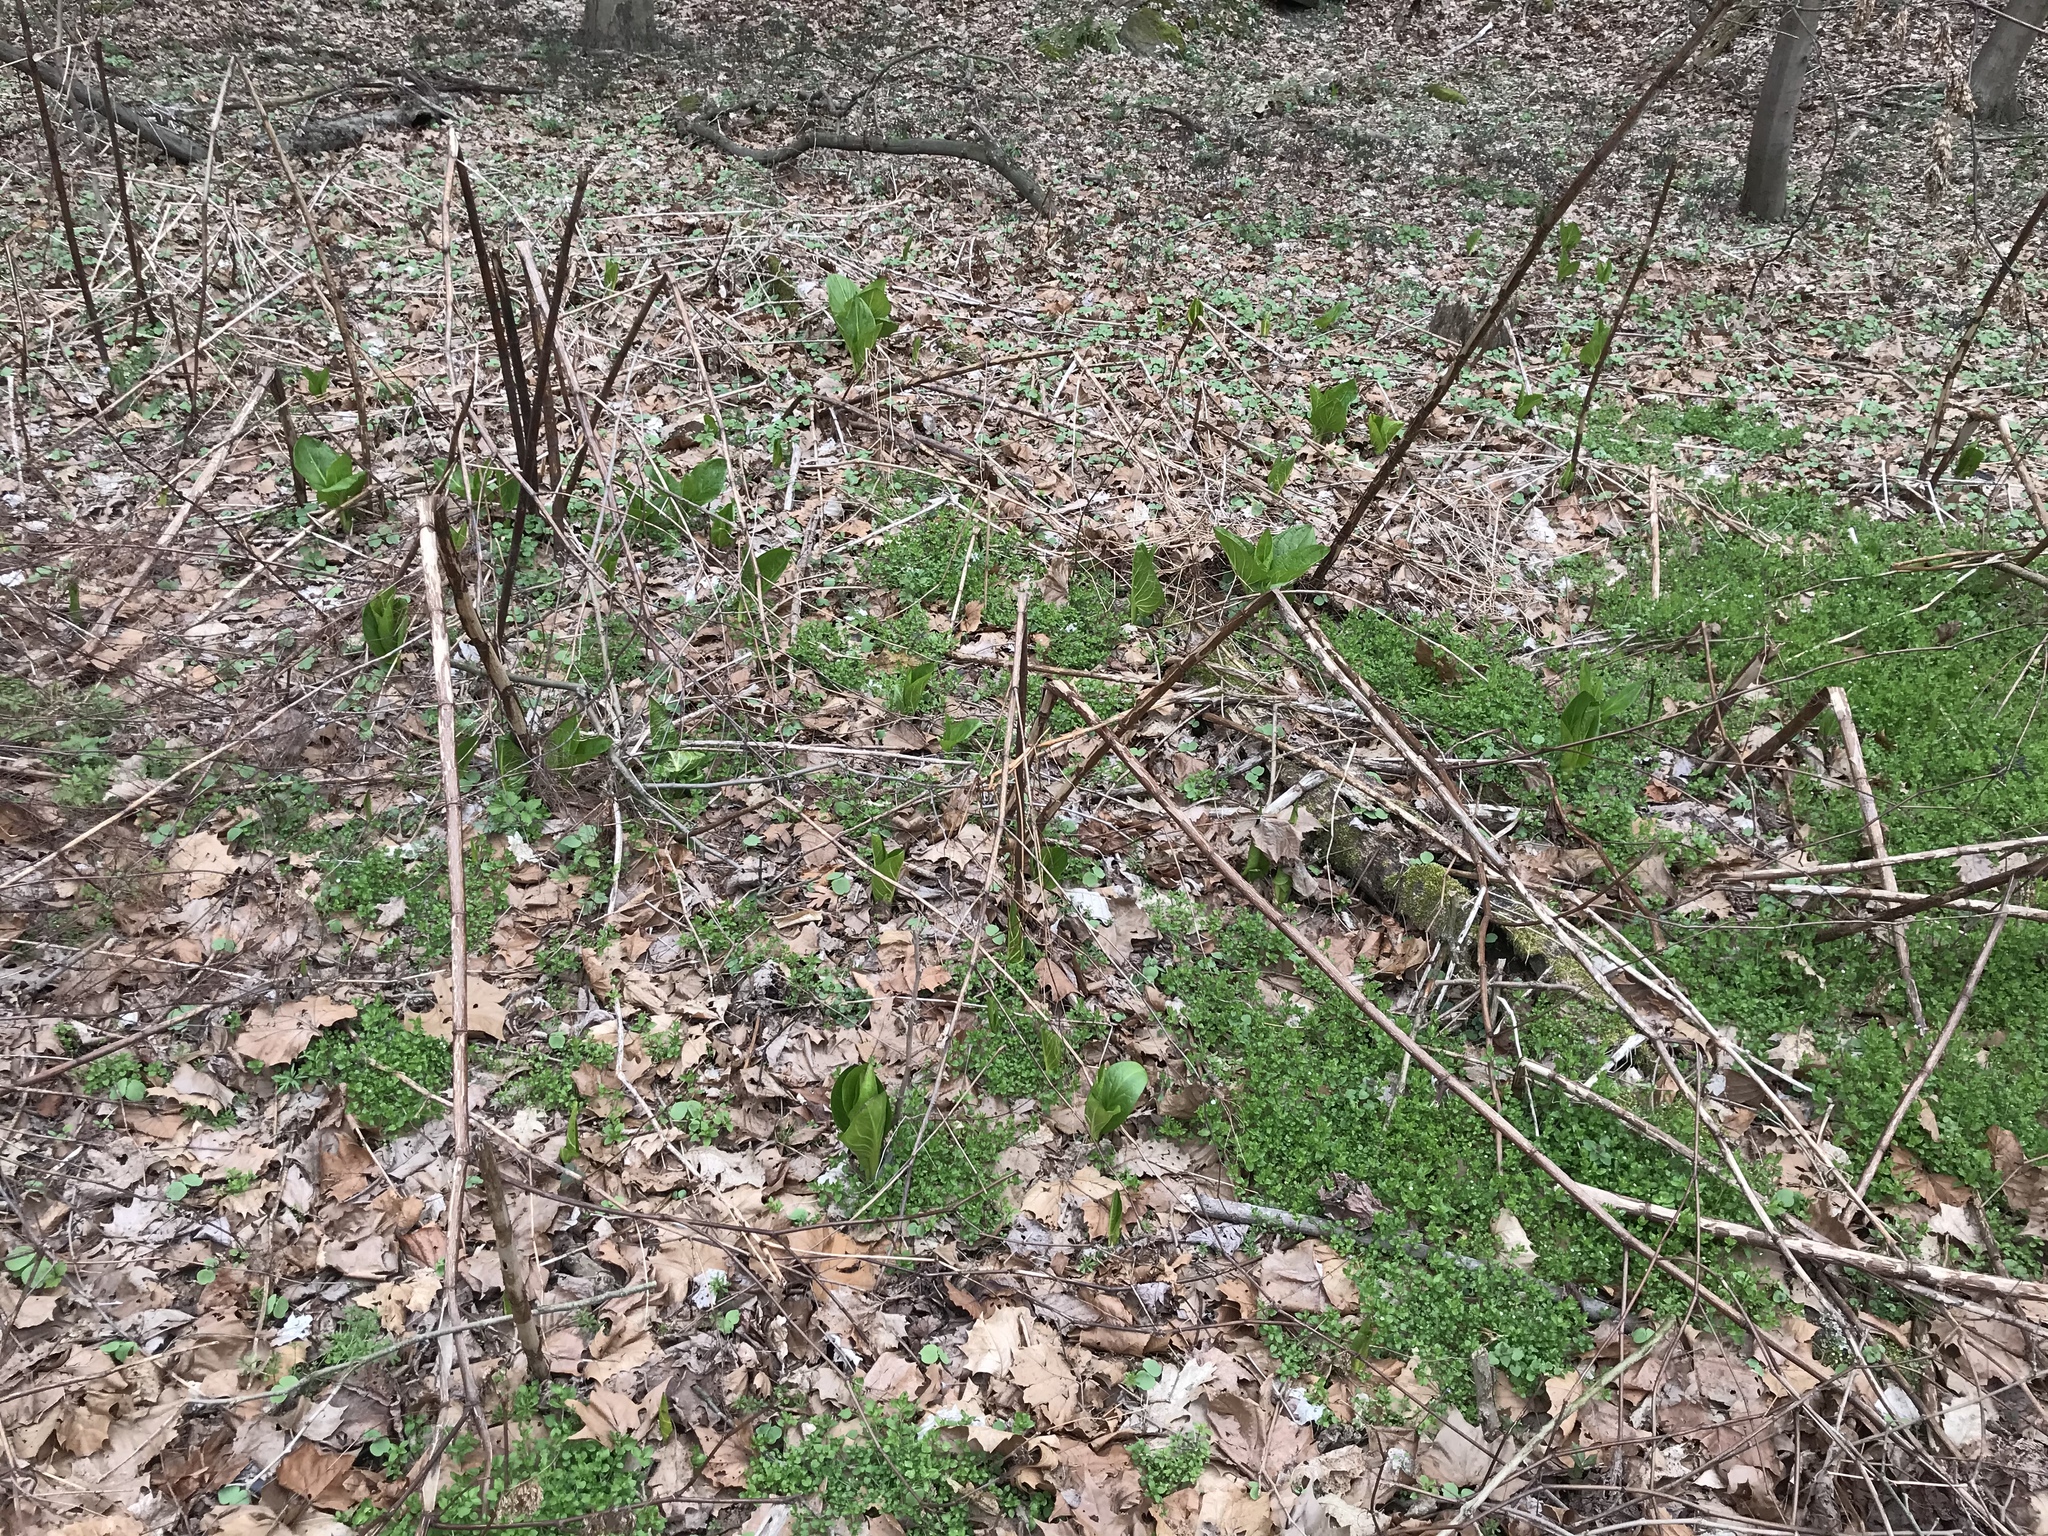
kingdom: Plantae
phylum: Tracheophyta
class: Liliopsida
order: Alismatales
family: Araceae
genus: Symplocarpus
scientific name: Symplocarpus foetidus
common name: Eastern skunk cabbage
